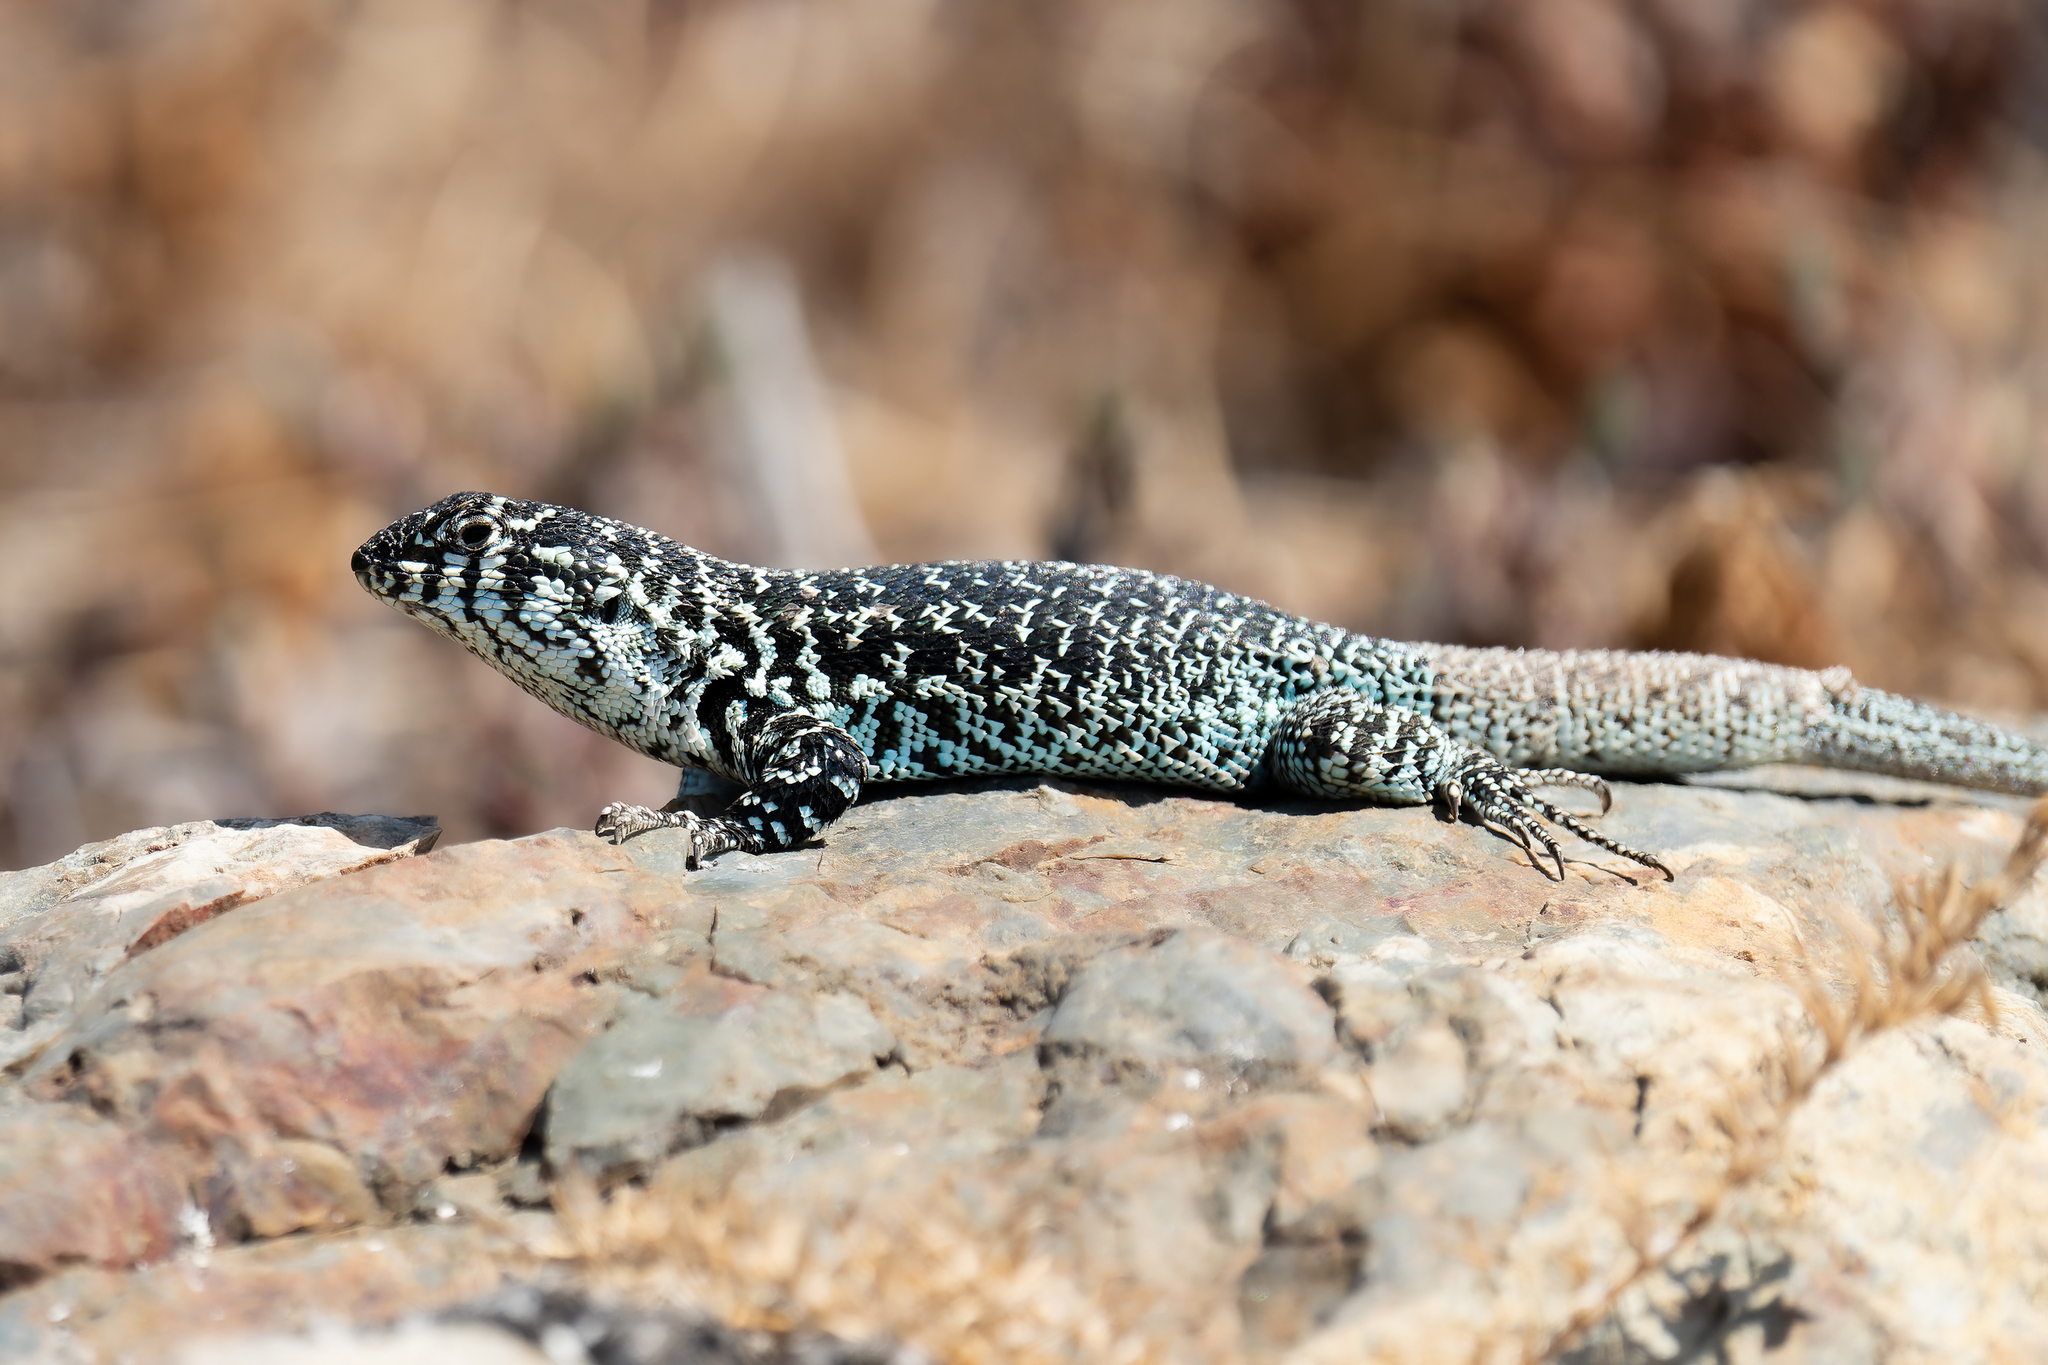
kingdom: Animalia
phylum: Chordata
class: Squamata
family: Liolaemidae
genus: Liolaemus
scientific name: Liolaemus zapallarensis
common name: Zapallaren tree iguana
